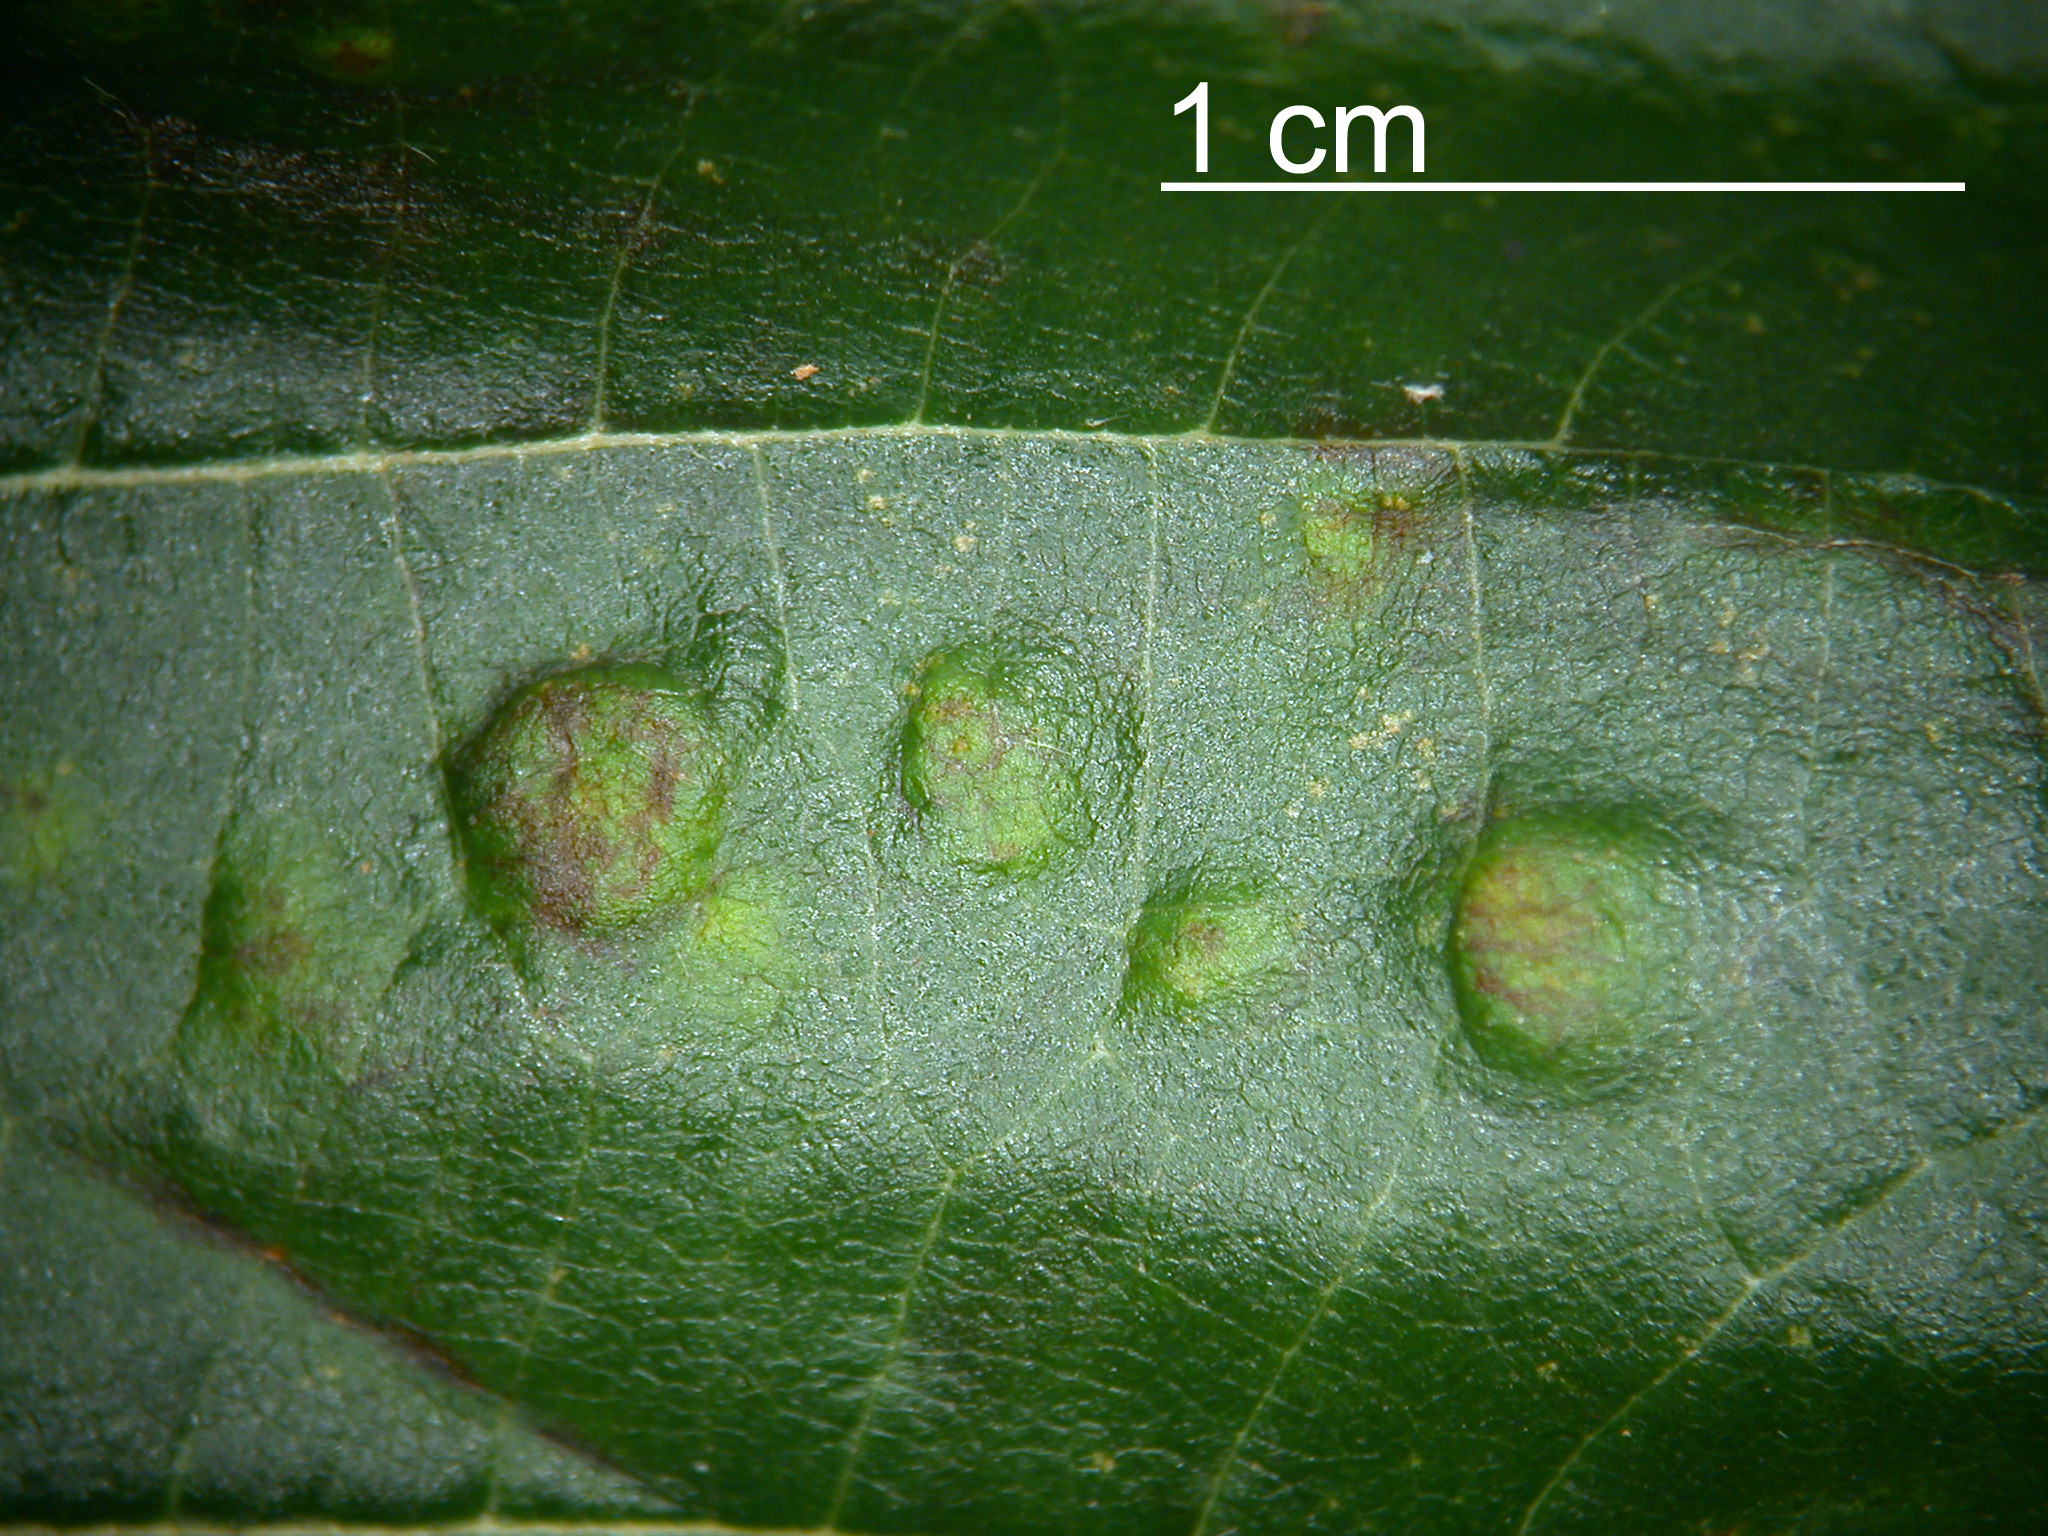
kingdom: Fungi
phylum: Ascomycota
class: Taphrinomycetes
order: Taphrinales
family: Taphrinaceae
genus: Taphrina
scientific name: Taphrina sadebeckii
